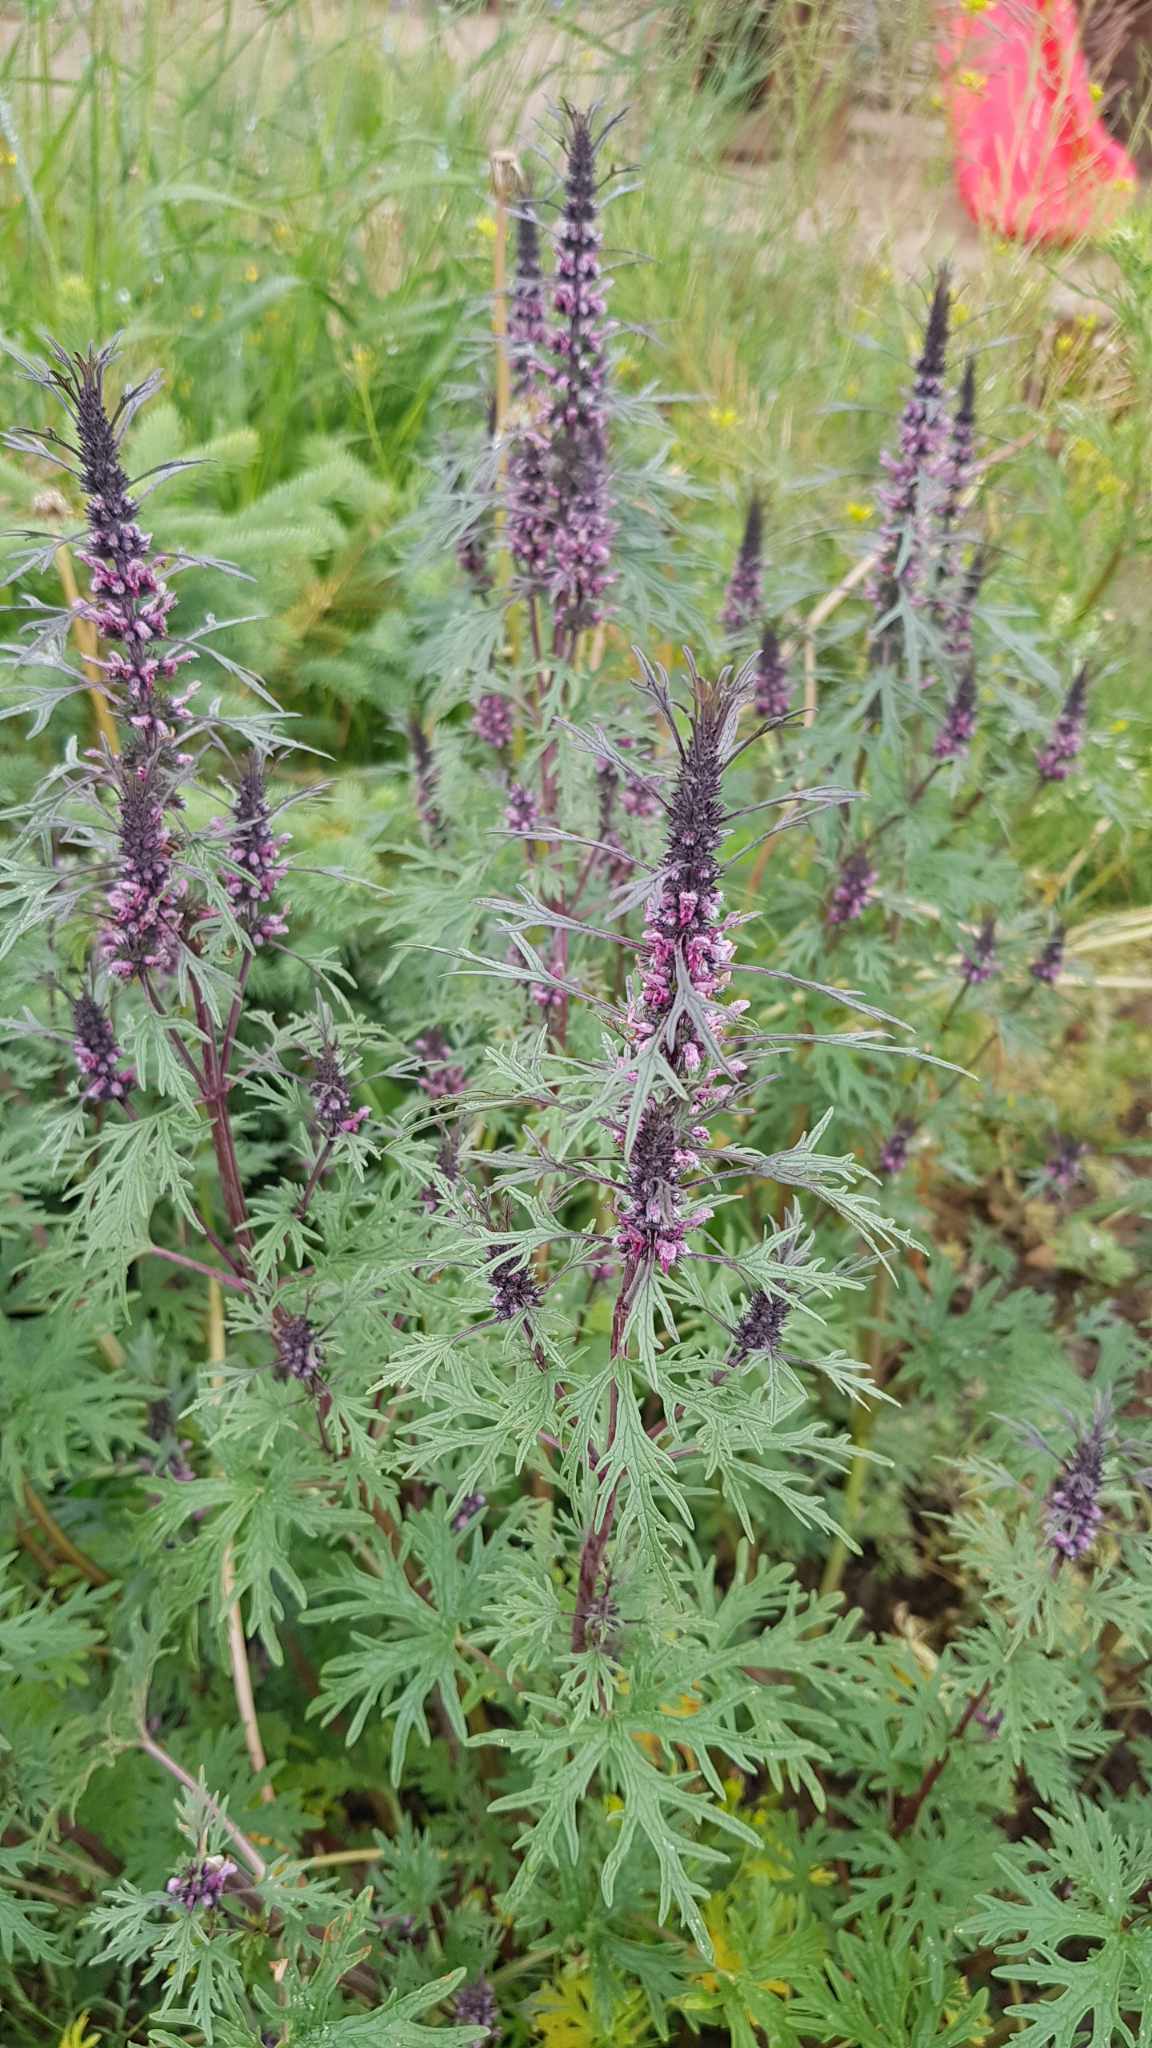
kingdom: Plantae
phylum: Tracheophyta
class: Magnoliopsida
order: Lamiales
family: Lamiaceae
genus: Leonurus
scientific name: Leonurus sibiricus
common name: Honeyweed
